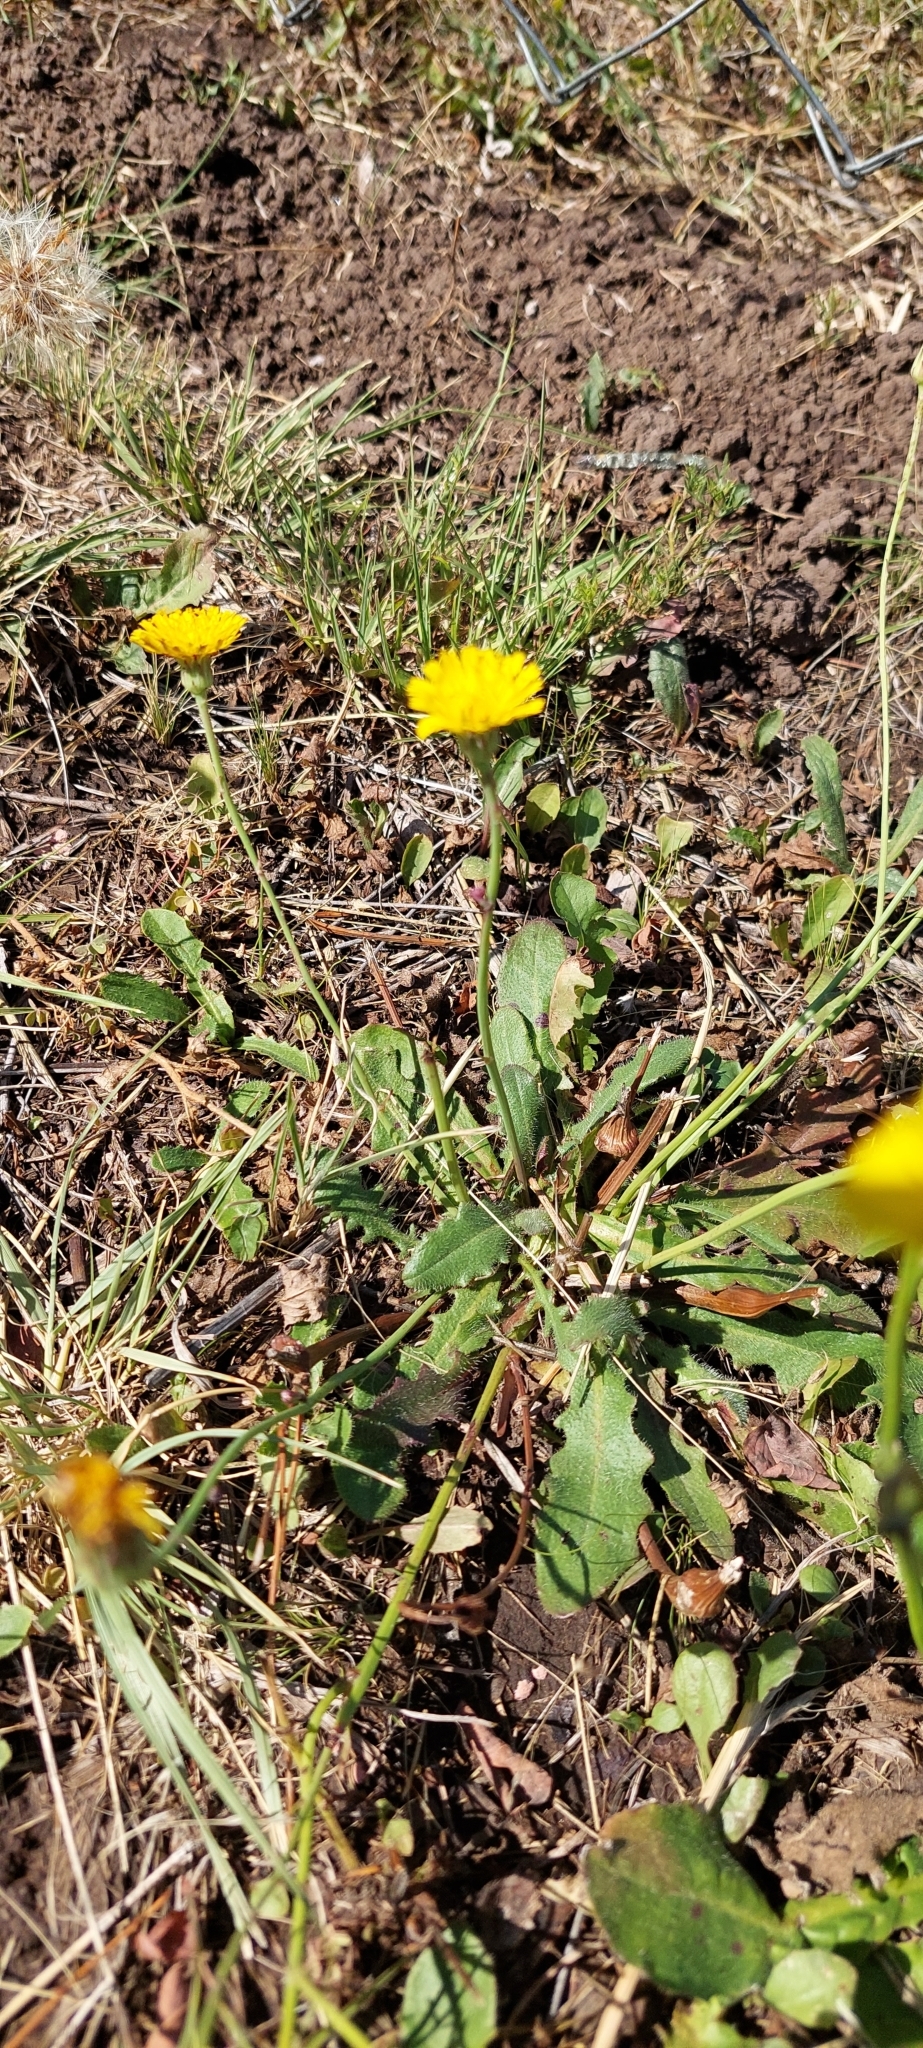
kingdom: Plantae
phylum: Tracheophyta
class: Magnoliopsida
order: Asterales
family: Asteraceae
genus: Hypochaeris
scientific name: Hypochaeris radicata
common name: Flatweed
